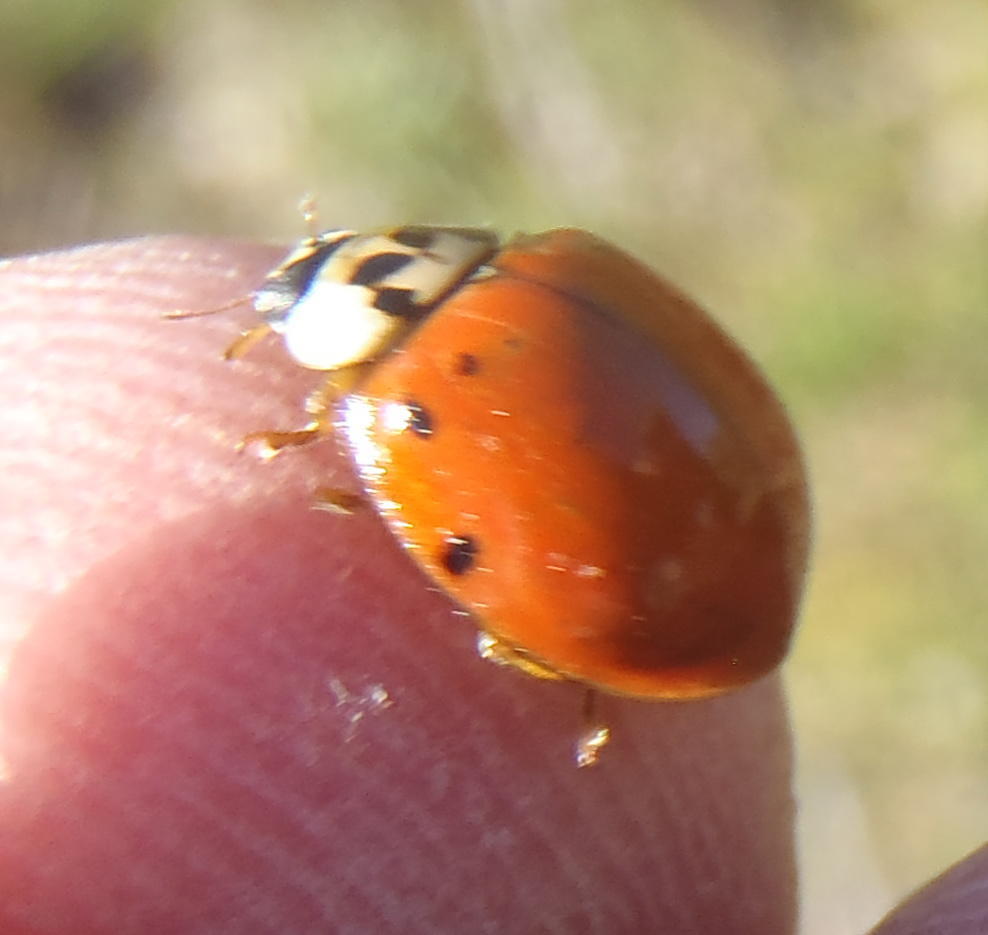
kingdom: Animalia
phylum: Arthropoda
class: Insecta
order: Coleoptera
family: Coccinellidae
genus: Harmonia
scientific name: Harmonia axyridis
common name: Harlequin ladybird
